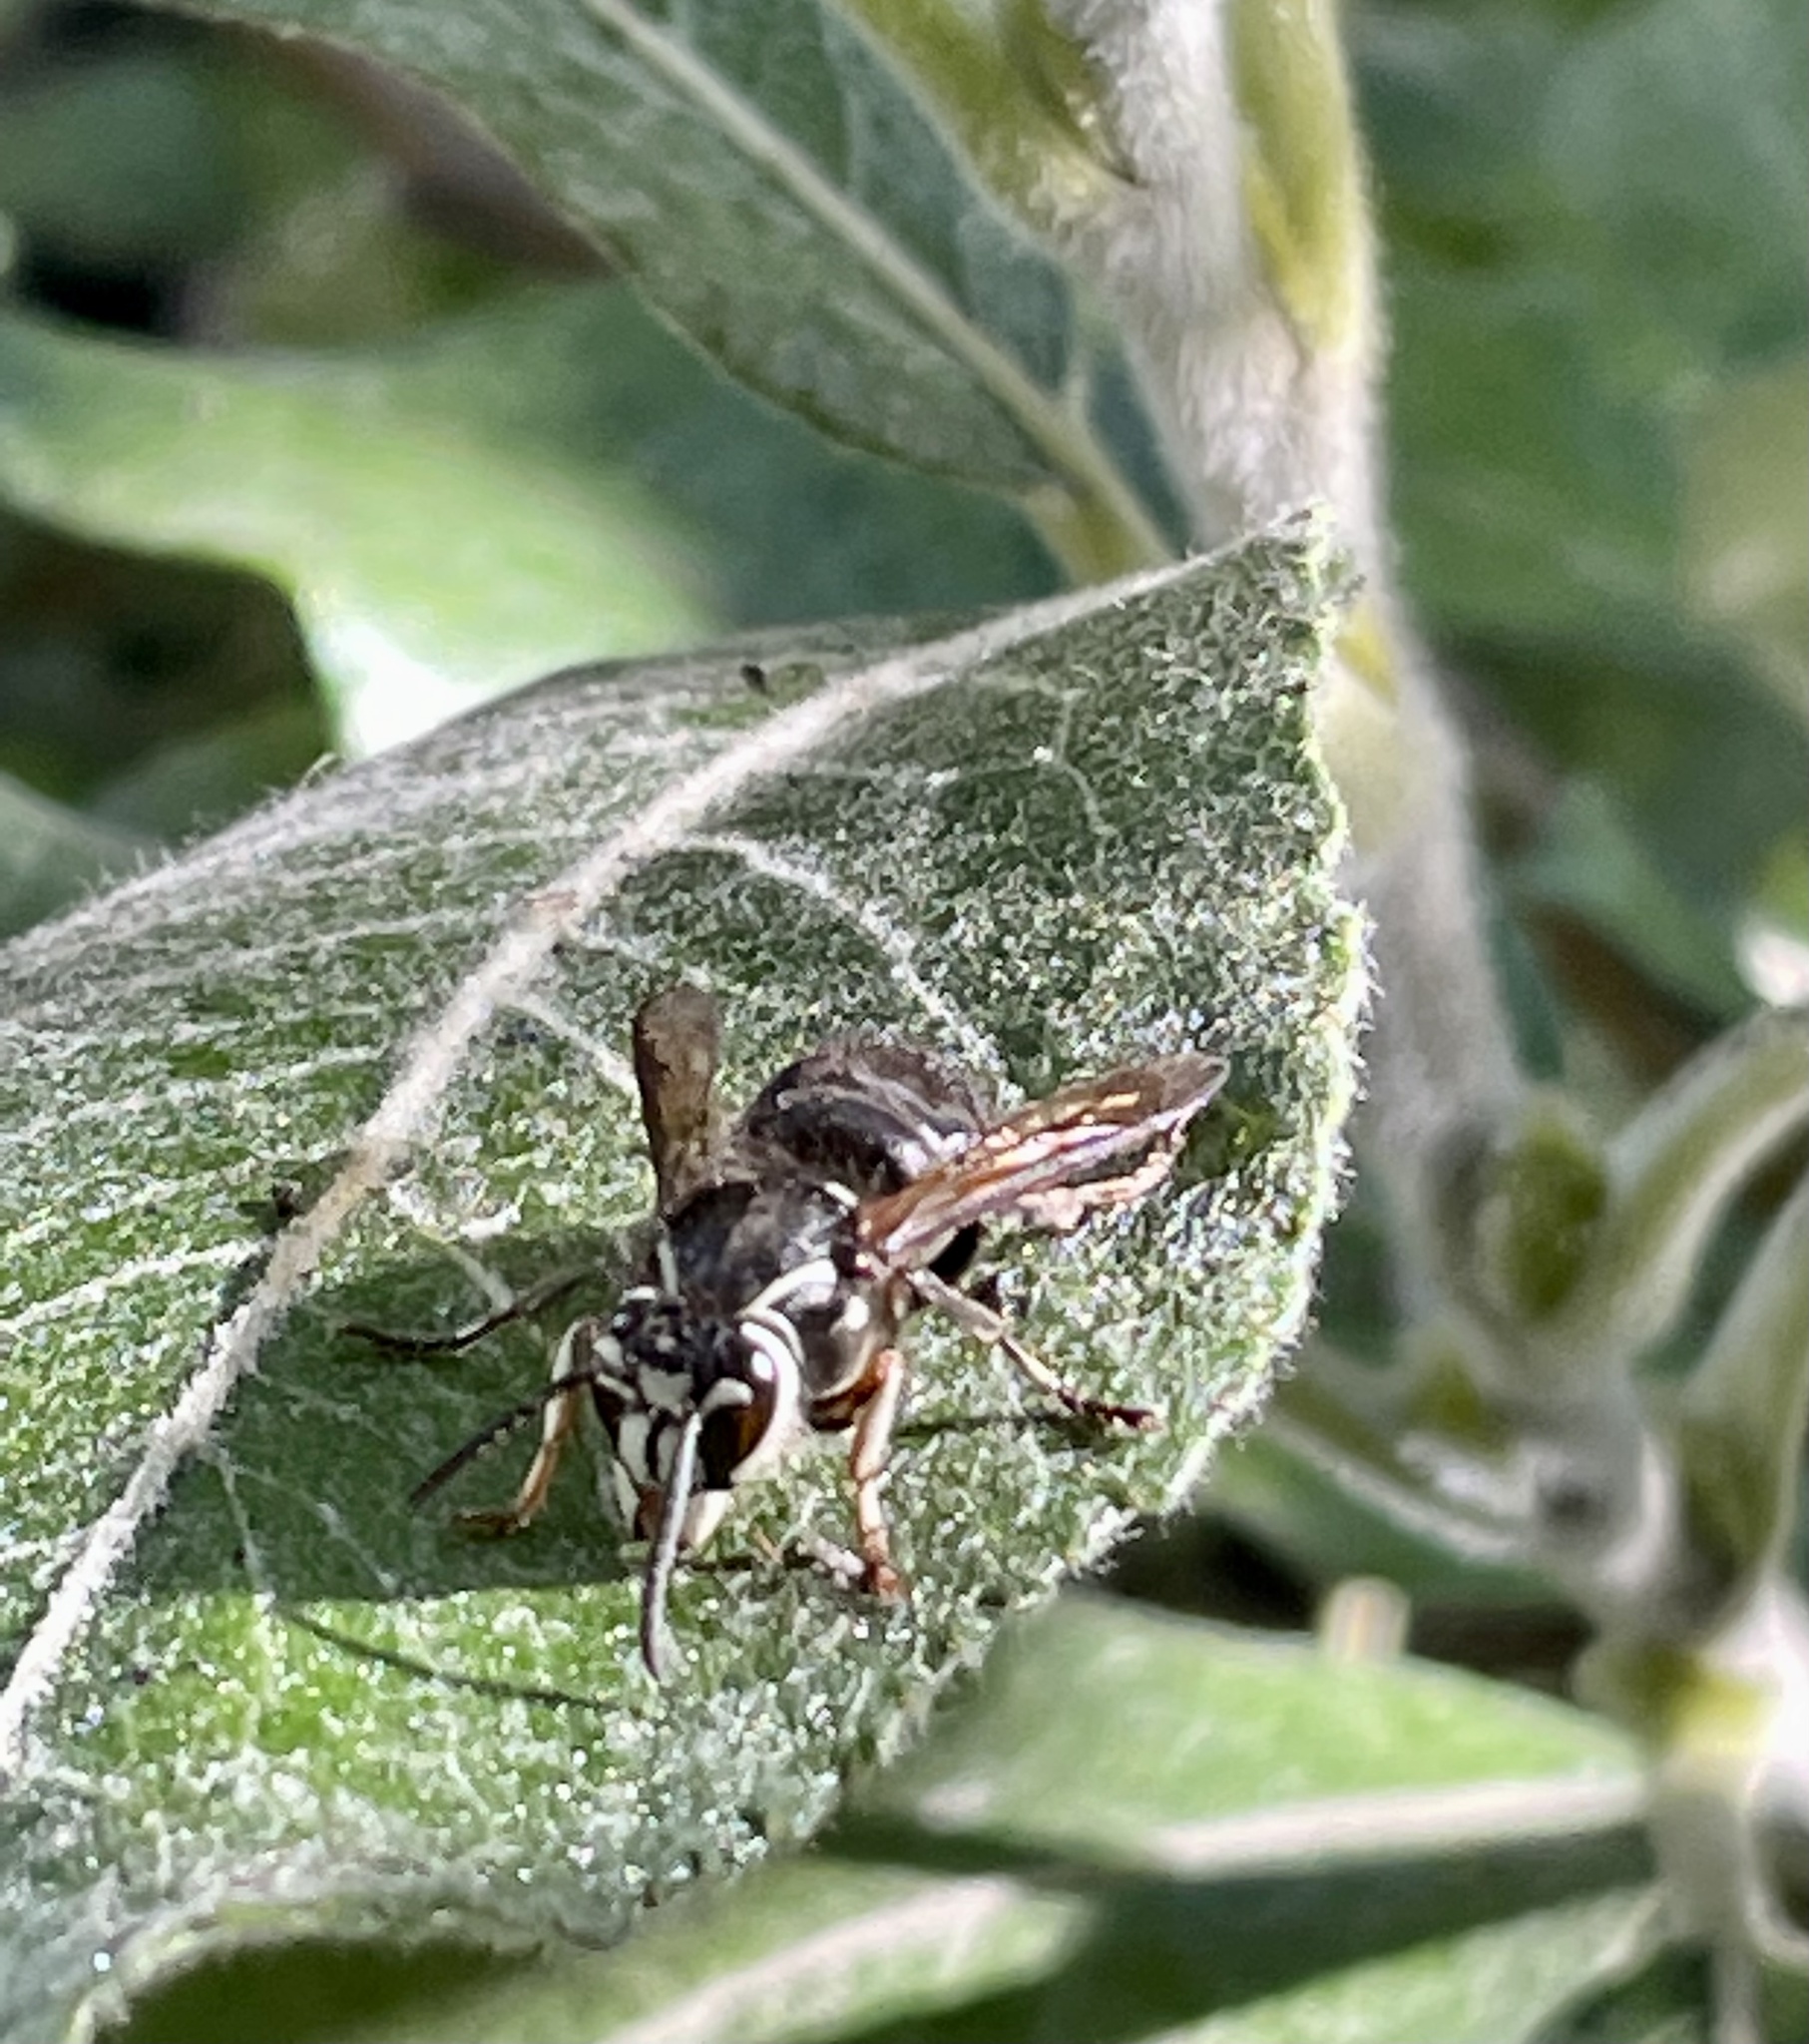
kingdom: Plantae
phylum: Tracheophyta
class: Magnoliopsida
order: Malpighiales
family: Salicaceae
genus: Salix
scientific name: Salix hookeriana
